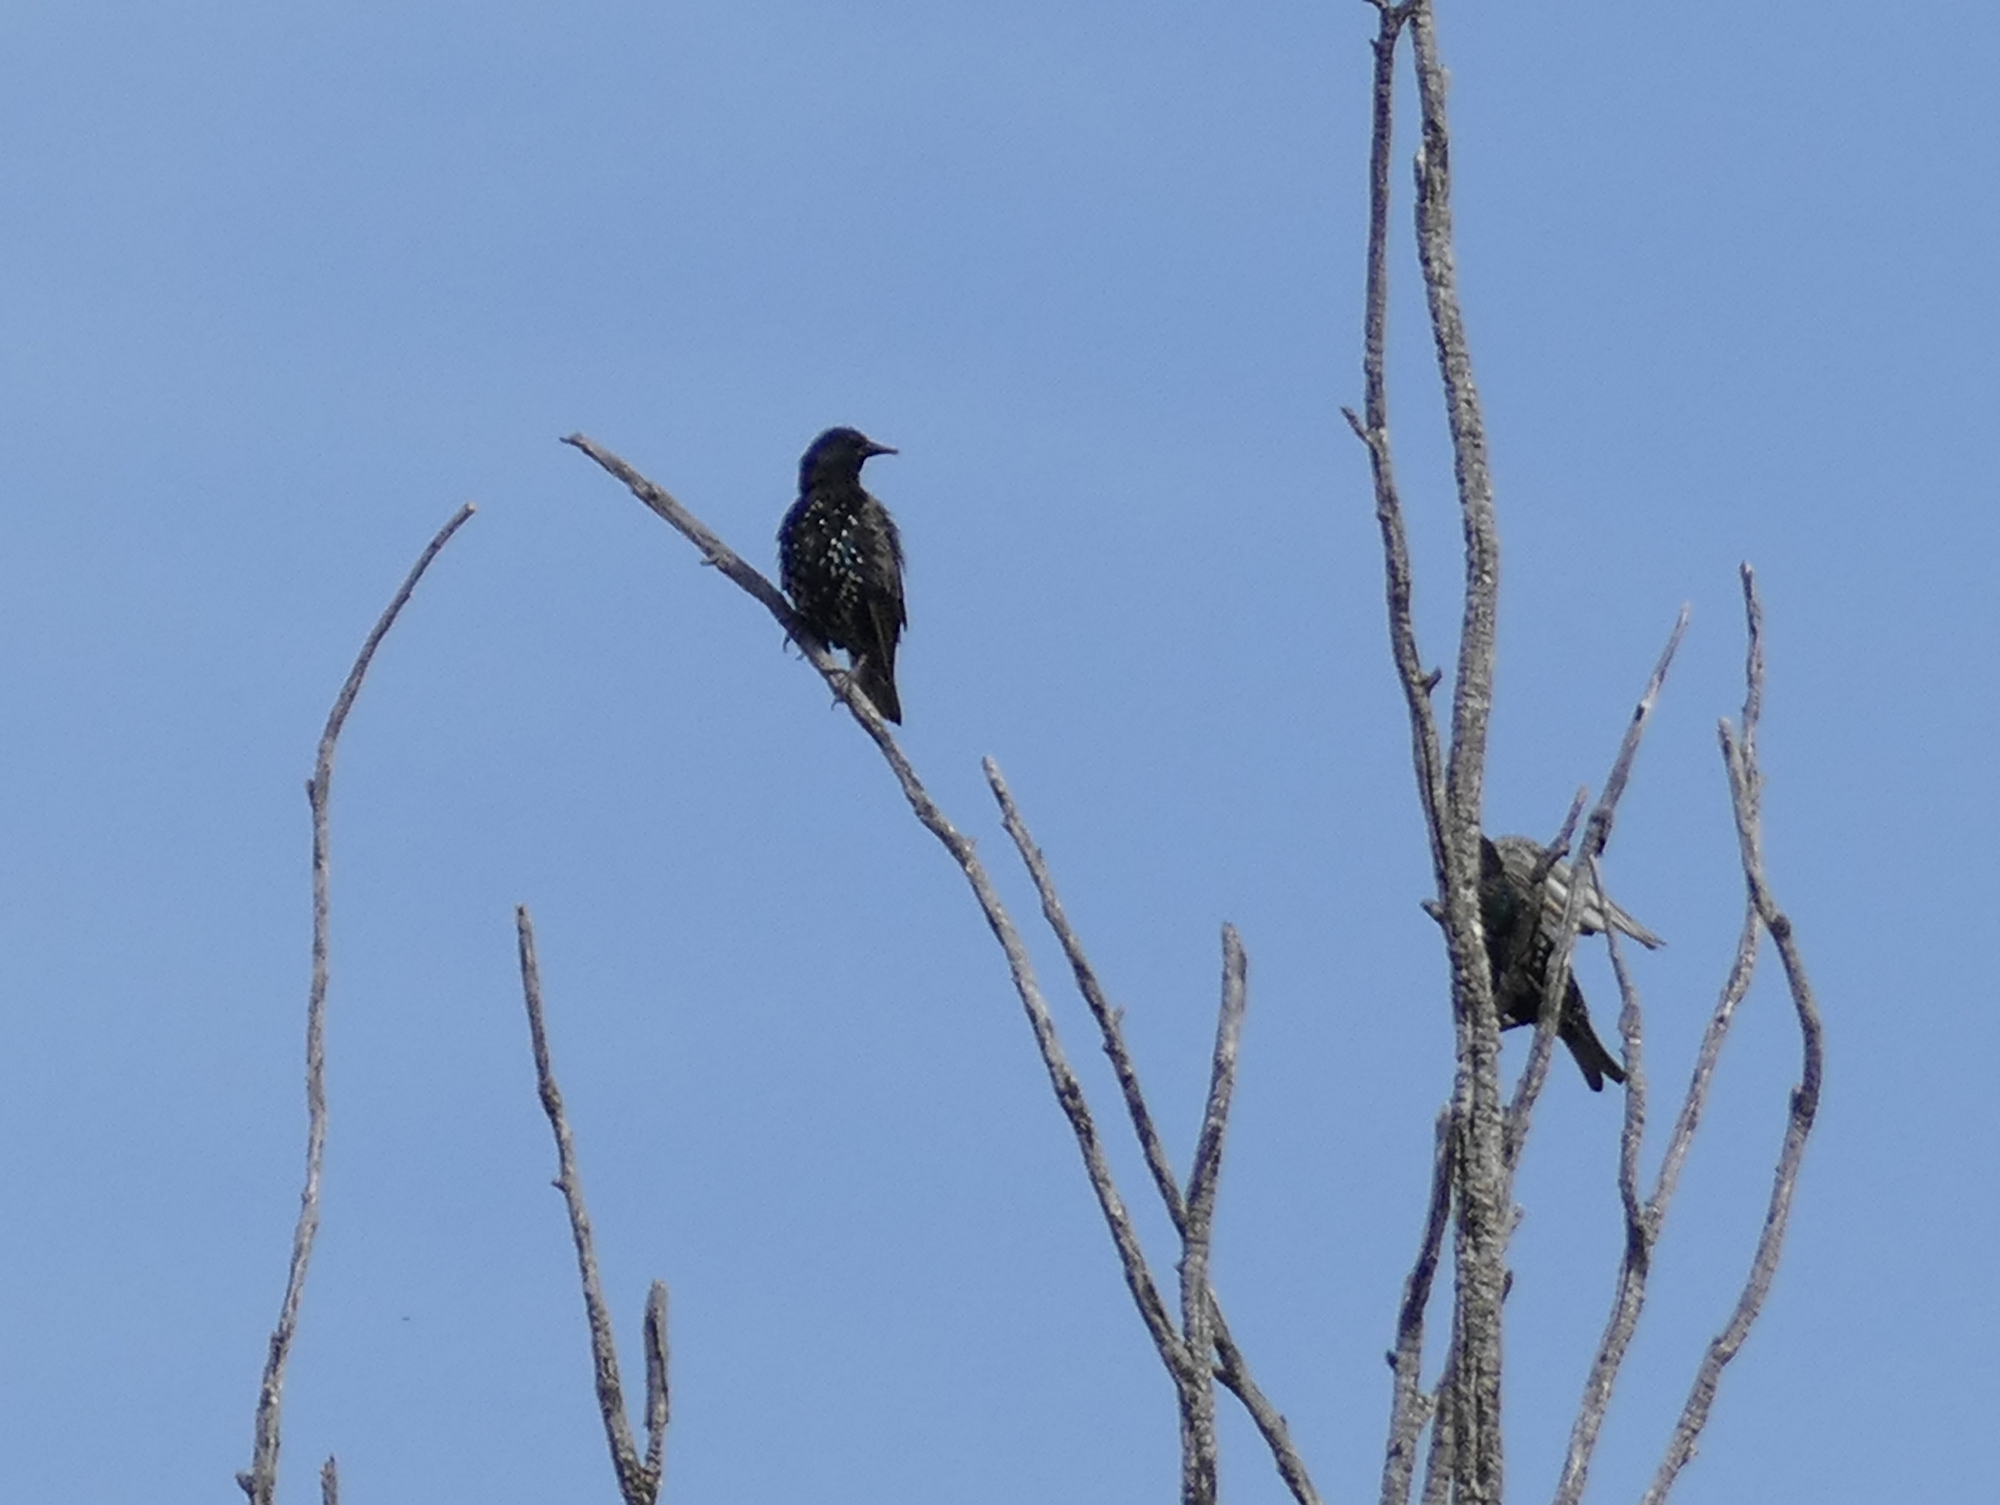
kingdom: Animalia
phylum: Chordata
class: Aves
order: Passeriformes
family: Sturnidae
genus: Sturnus
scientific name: Sturnus vulgaris
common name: Common starling
